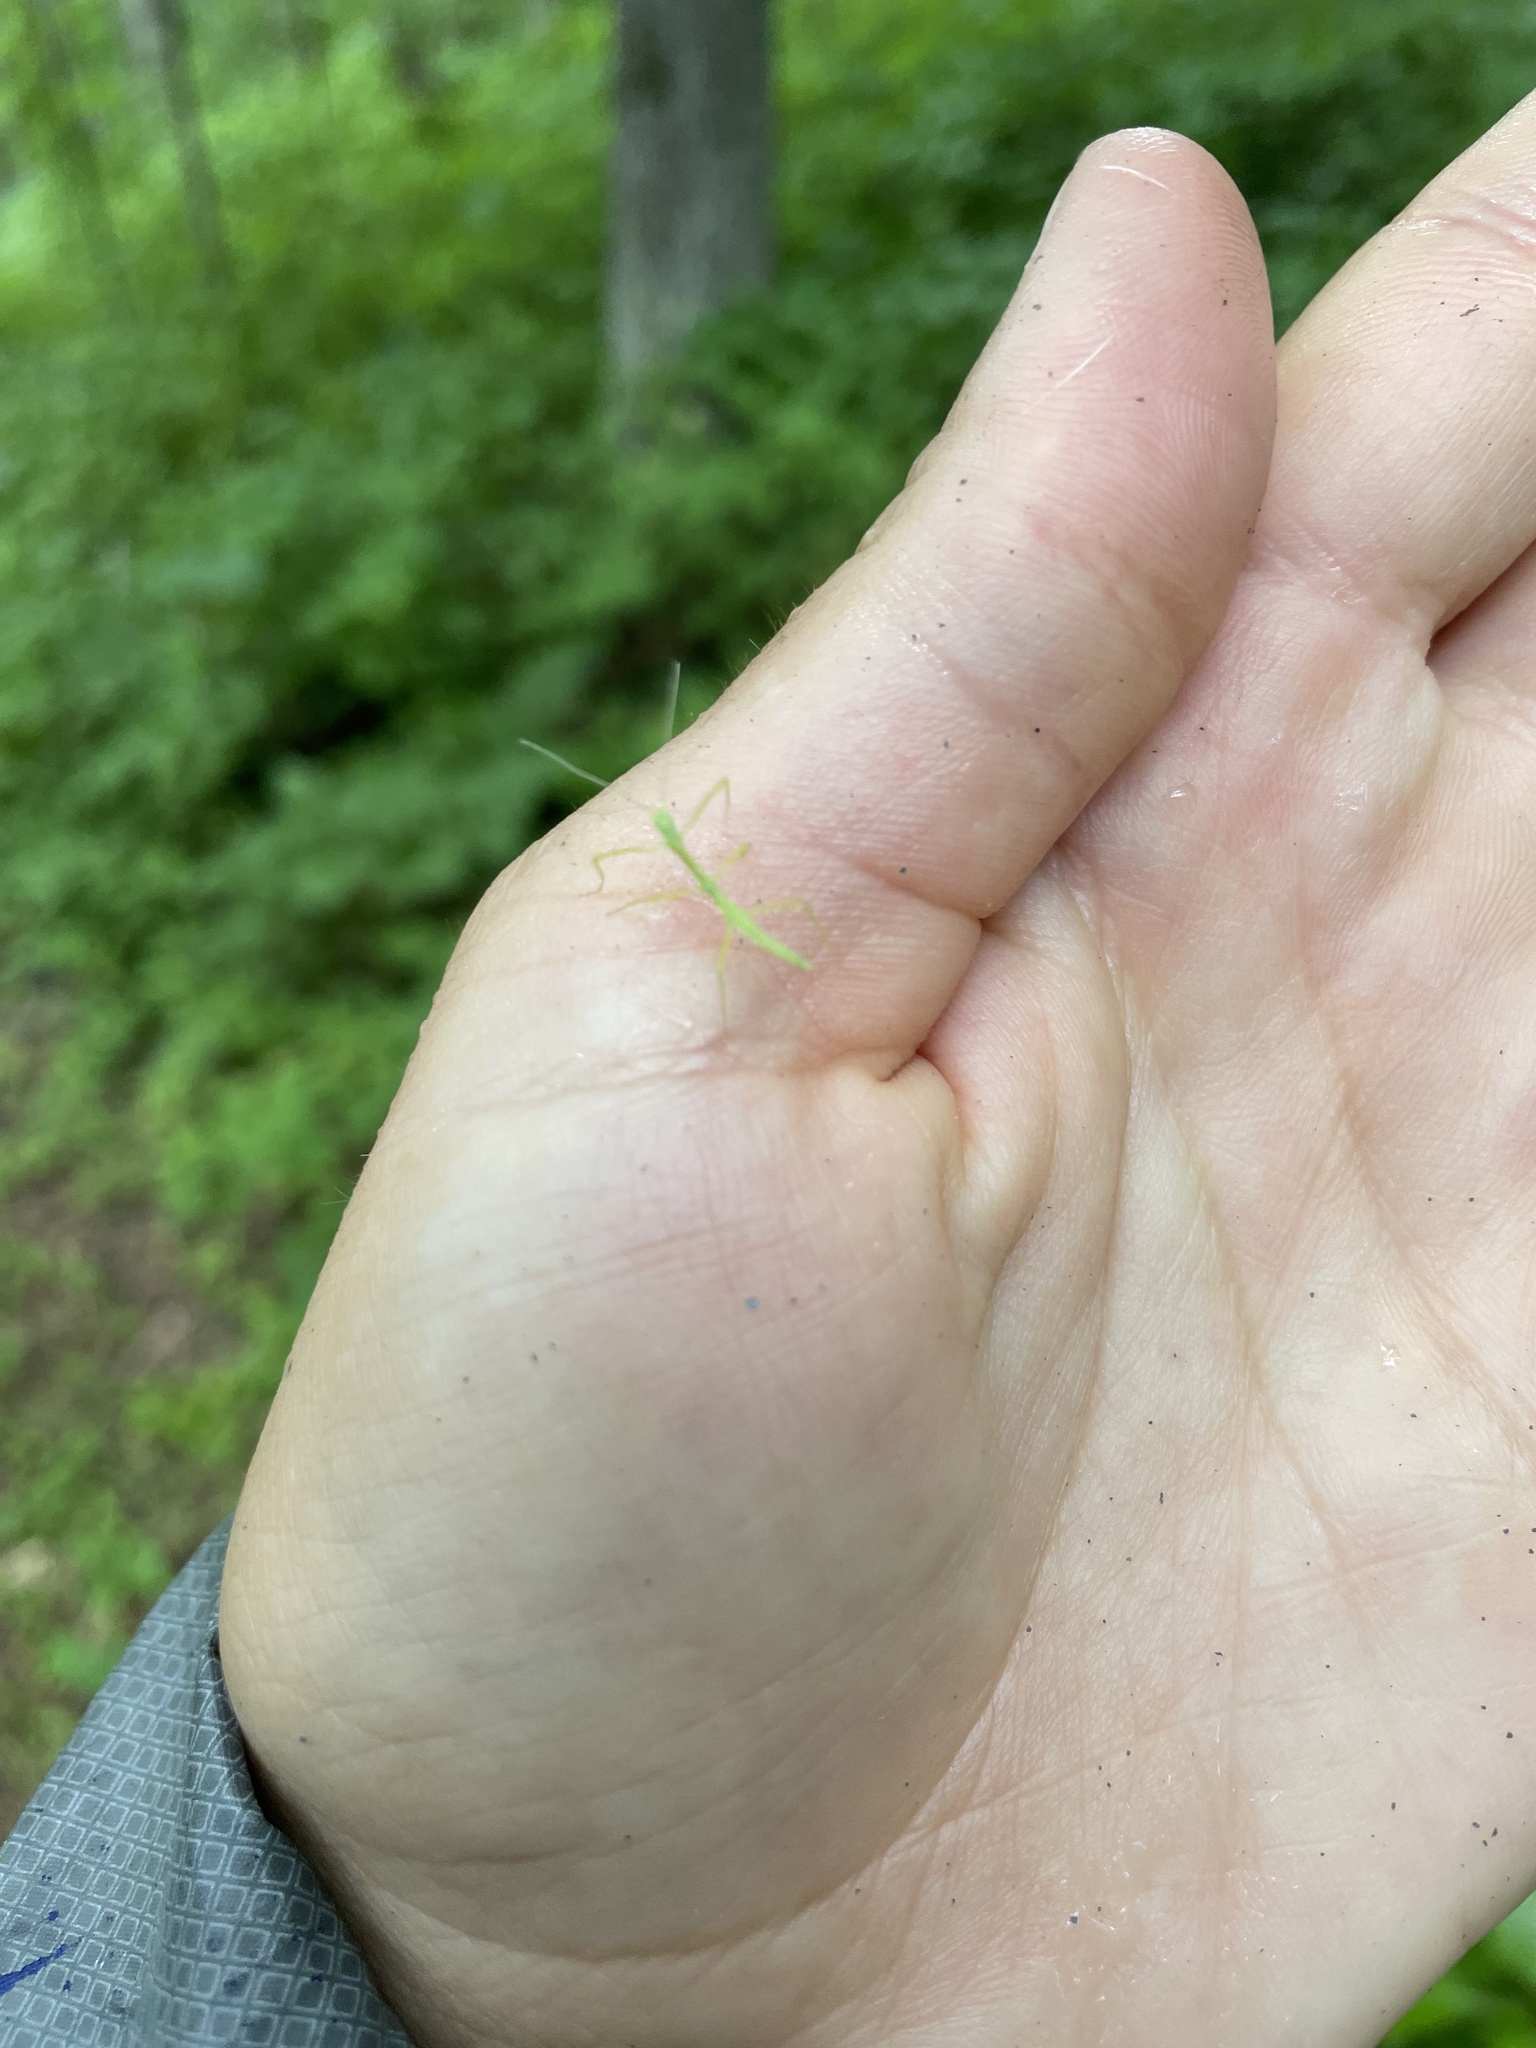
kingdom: Animalia
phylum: Arthropoda
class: Insecta
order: Phasmida
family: Diapheromeridae
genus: Diapheromera
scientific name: Diapheromera femorata
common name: Common american walkingstick
